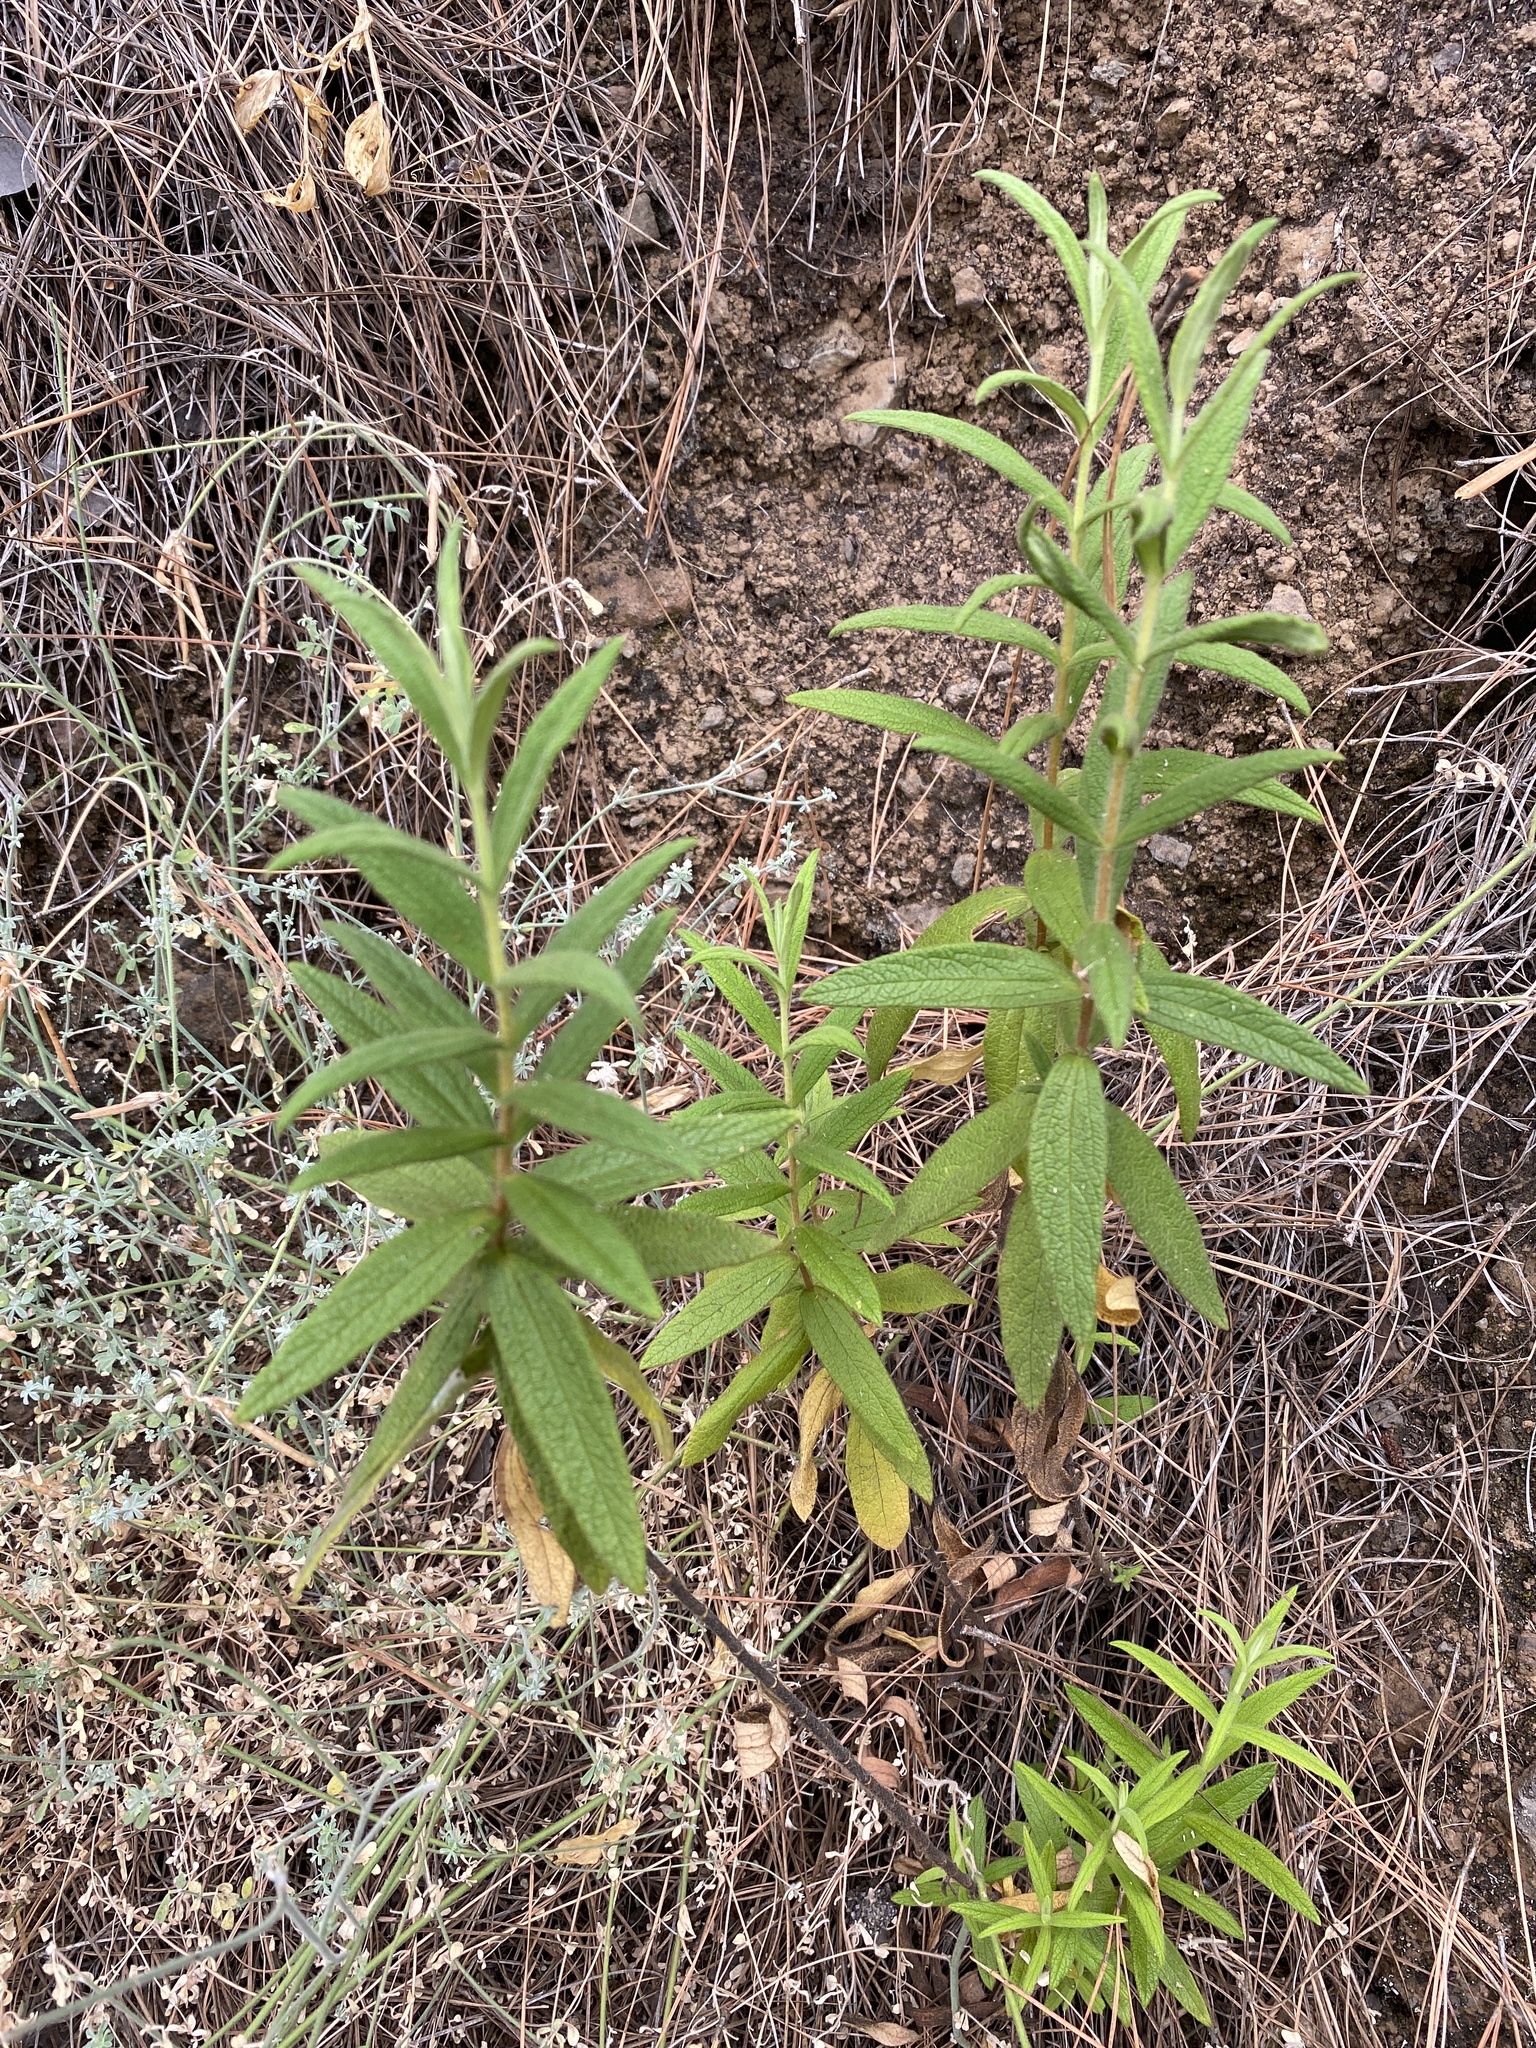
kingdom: Plantae
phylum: Tracheophyta
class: Magnoliopsida
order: Malvales
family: Cistaceae
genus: Cistus
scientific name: Cistus monspeliensis
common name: Montpelier cistus
